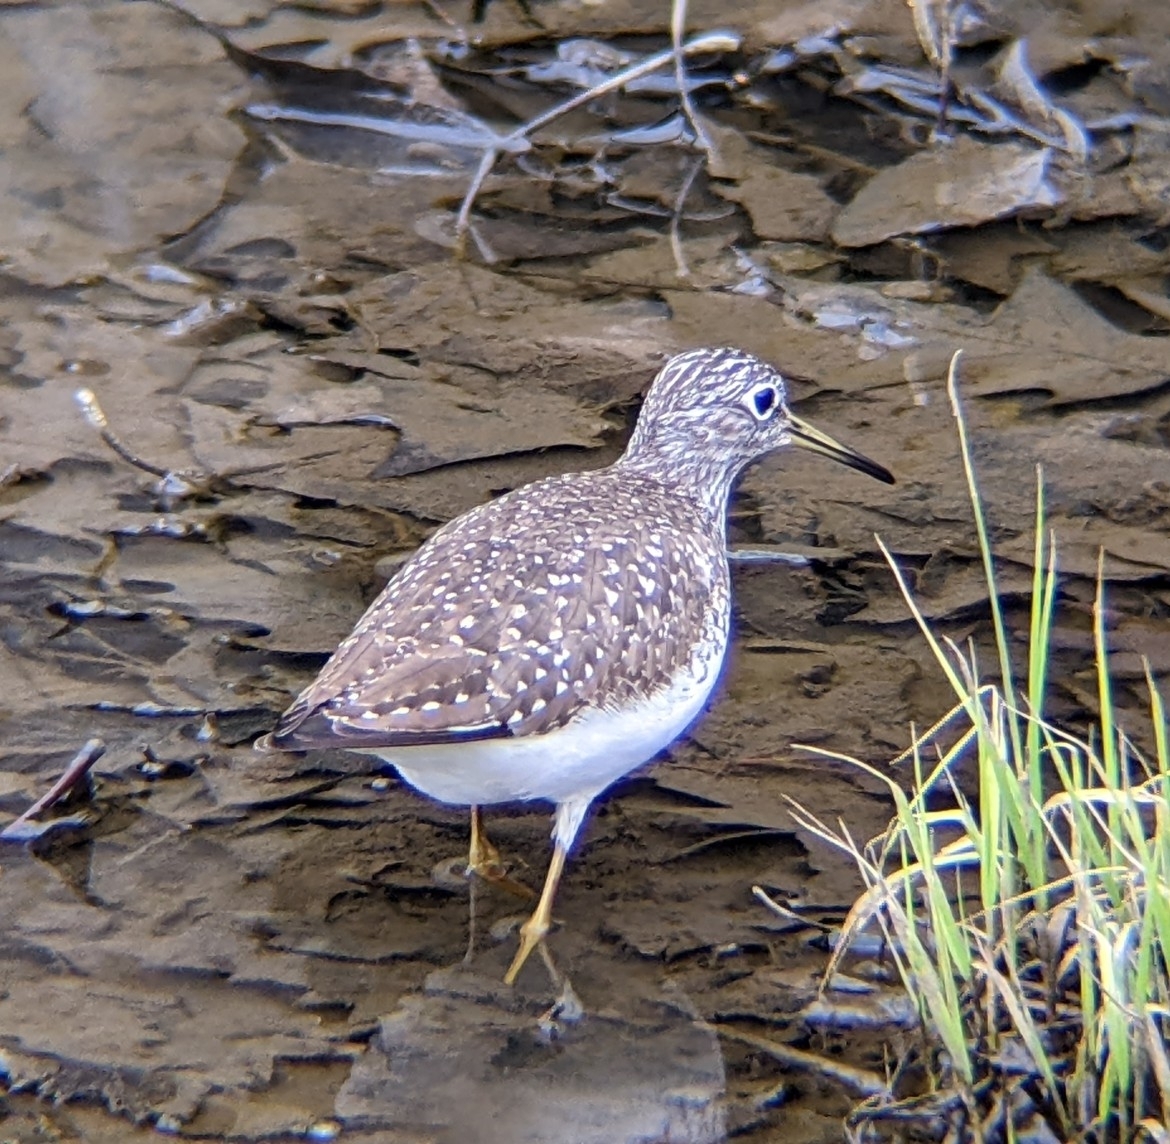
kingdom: Animalia
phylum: Chordata
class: Aves
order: Charadriiformes
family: Scolopacidae
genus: Tringa
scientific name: Tringa solitaria
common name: Solitary sandpiper
